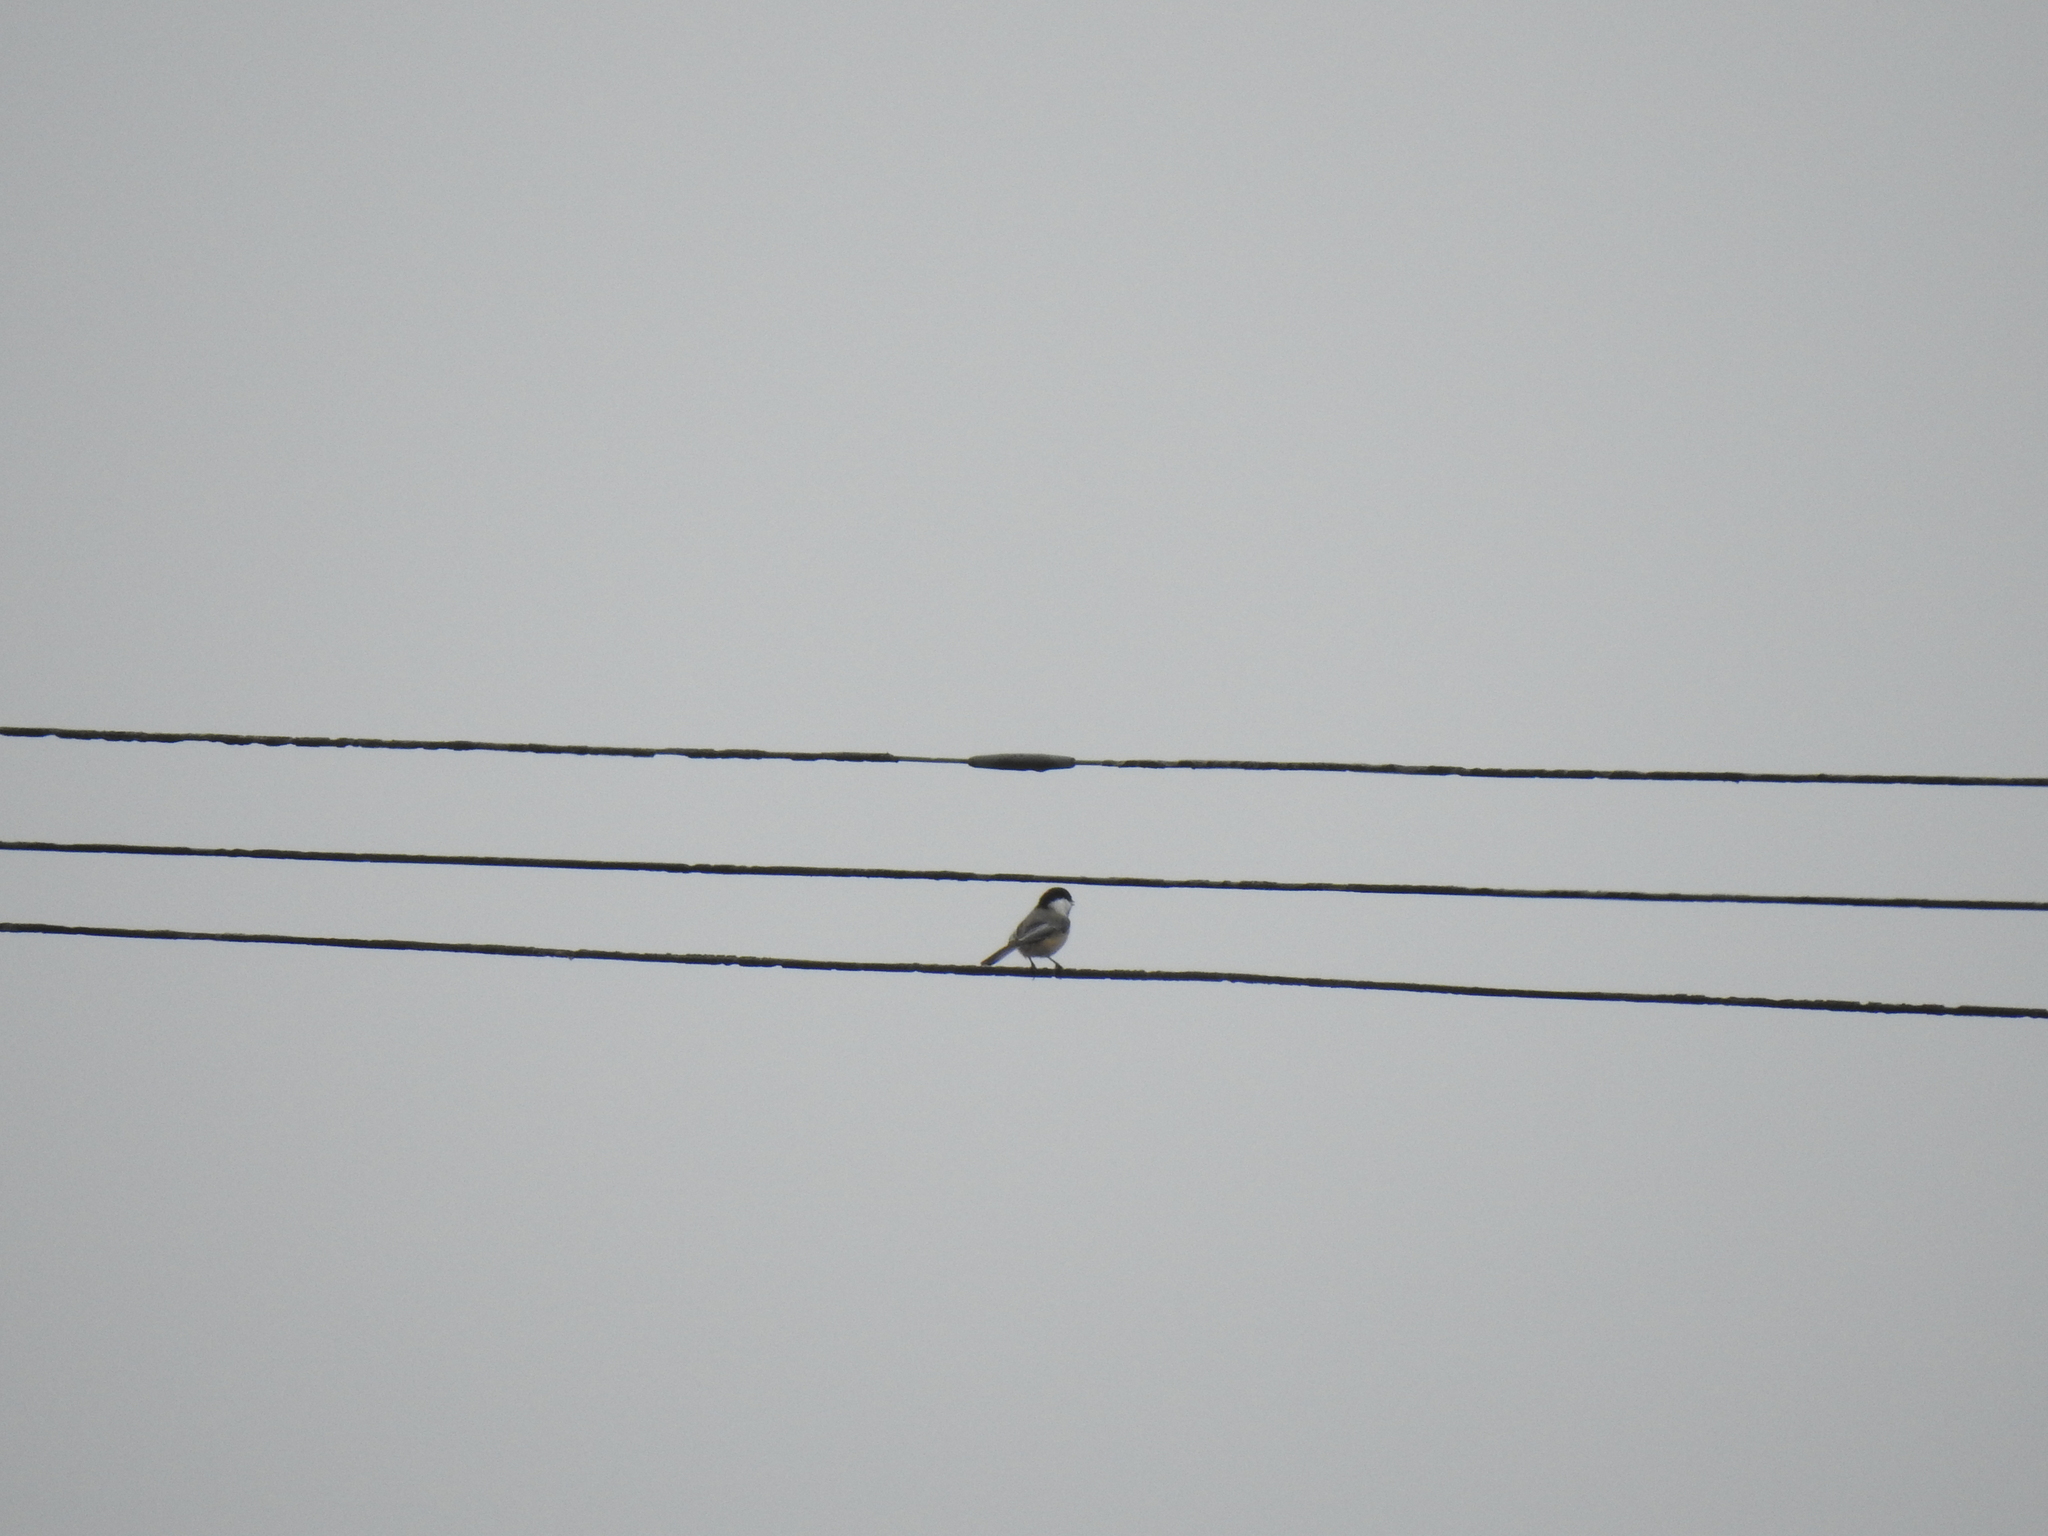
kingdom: Animalia
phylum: Chordata
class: Aves
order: Passeriformes
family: Paridae
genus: Poecile
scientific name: Poecile atricapillus
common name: Black-capped chickadee
